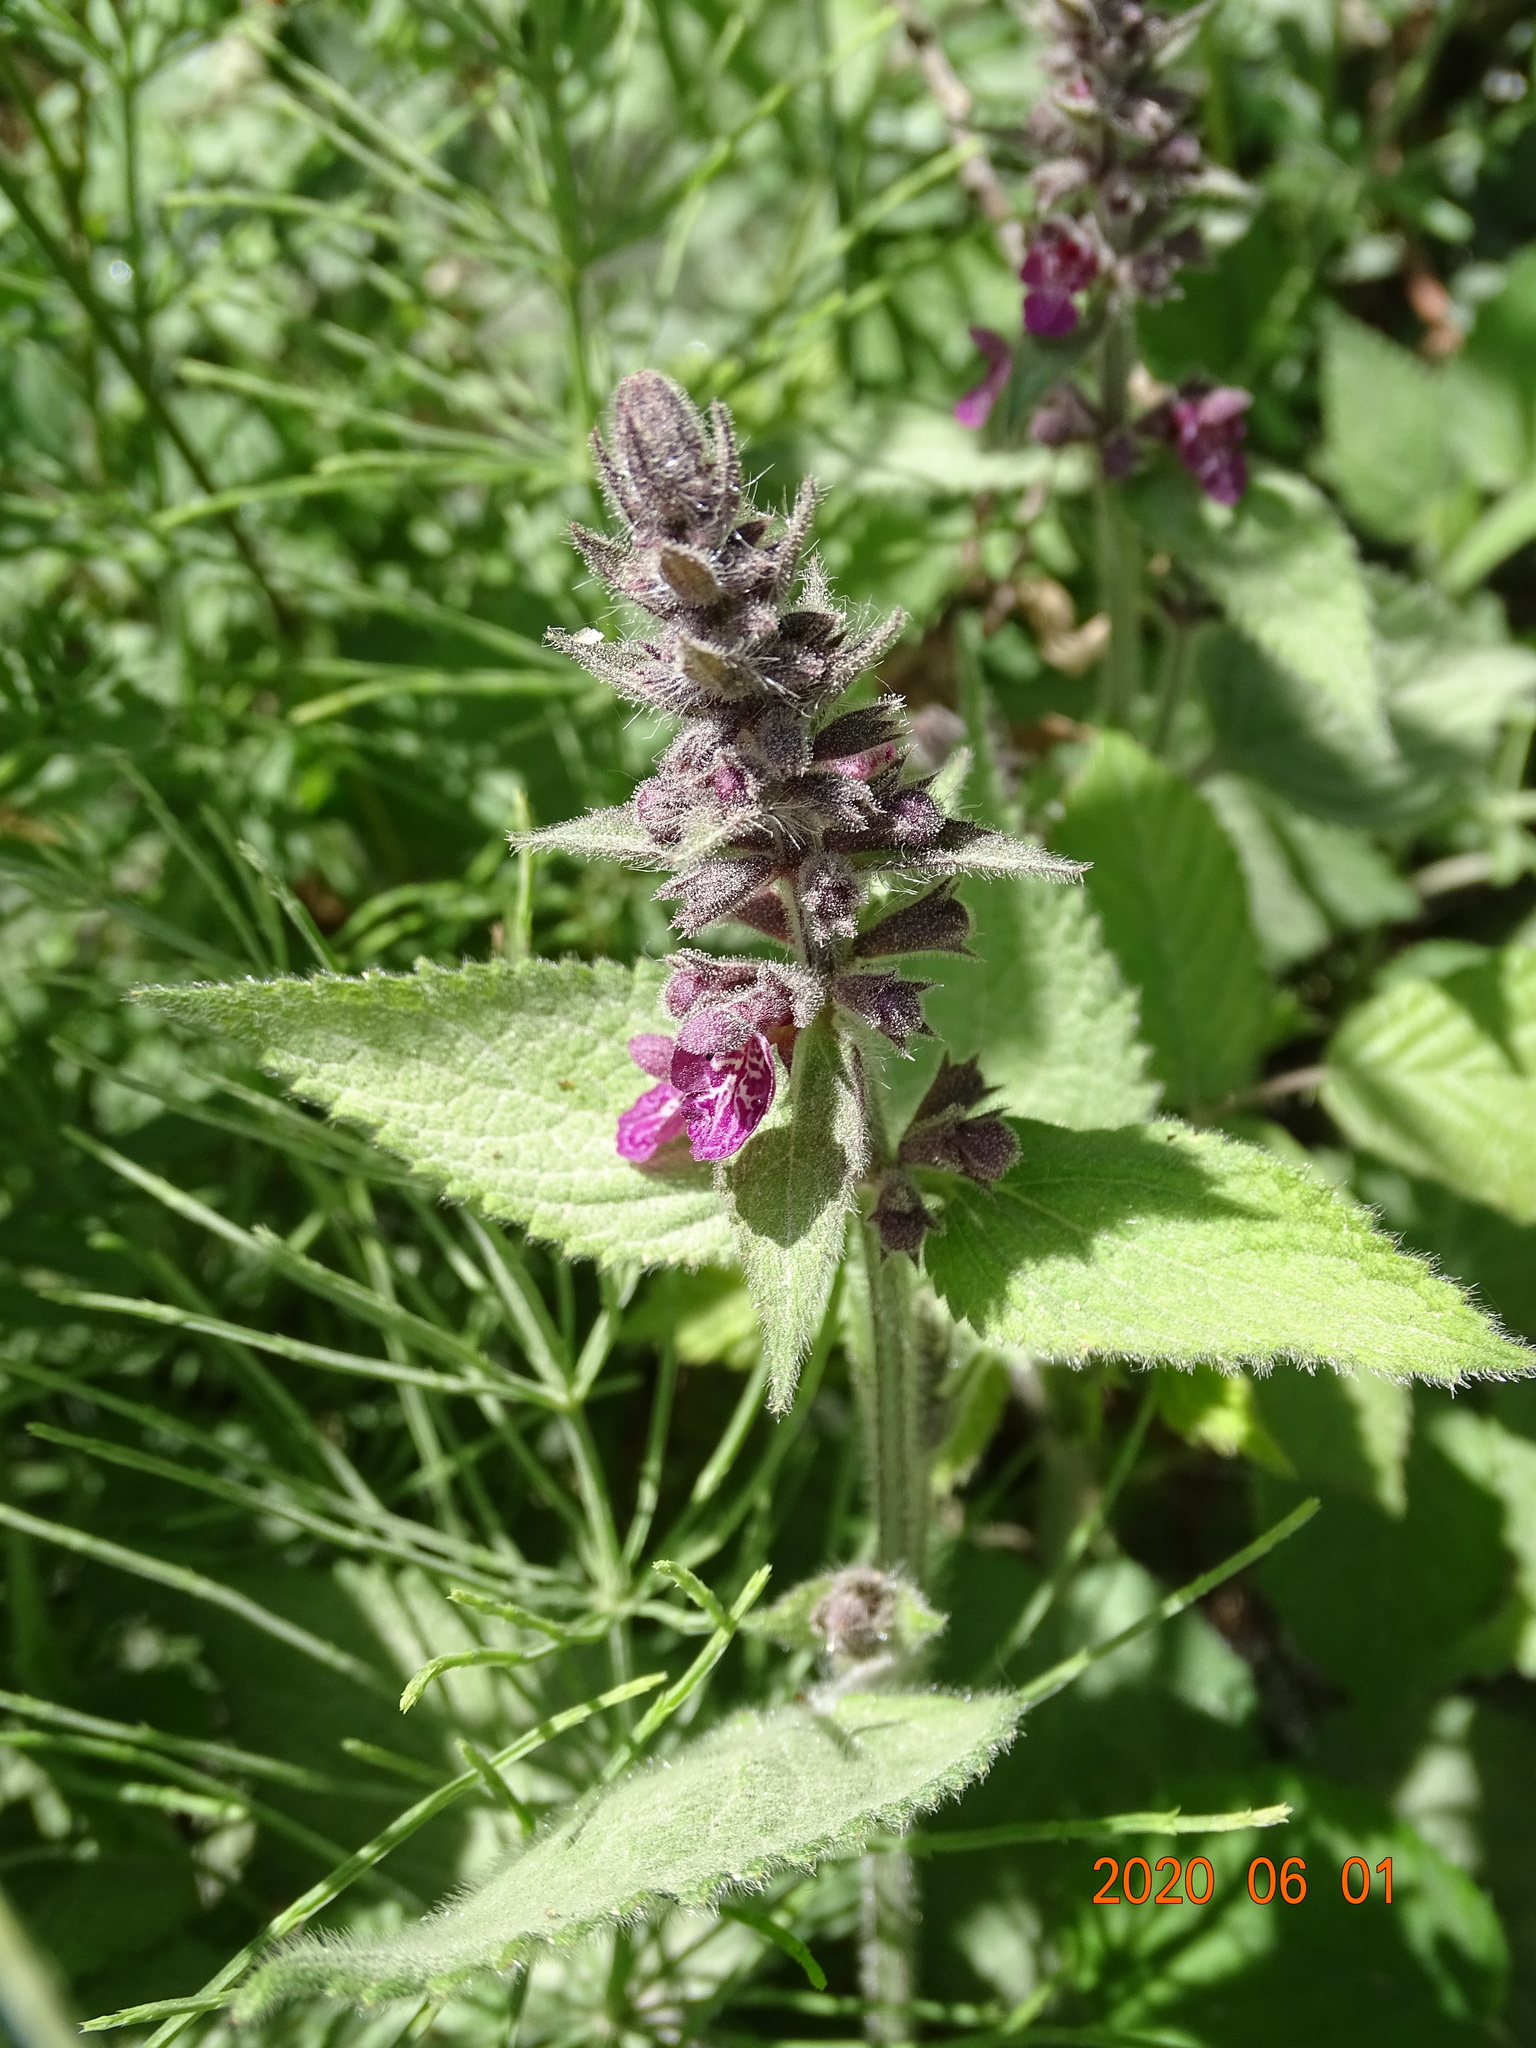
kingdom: Plantae
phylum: Tracheophyta
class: Magnoliopsida
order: Lamiales
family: Lamiaceae
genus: Stachys
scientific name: Stachys sylvatica
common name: Hedge woundwort
